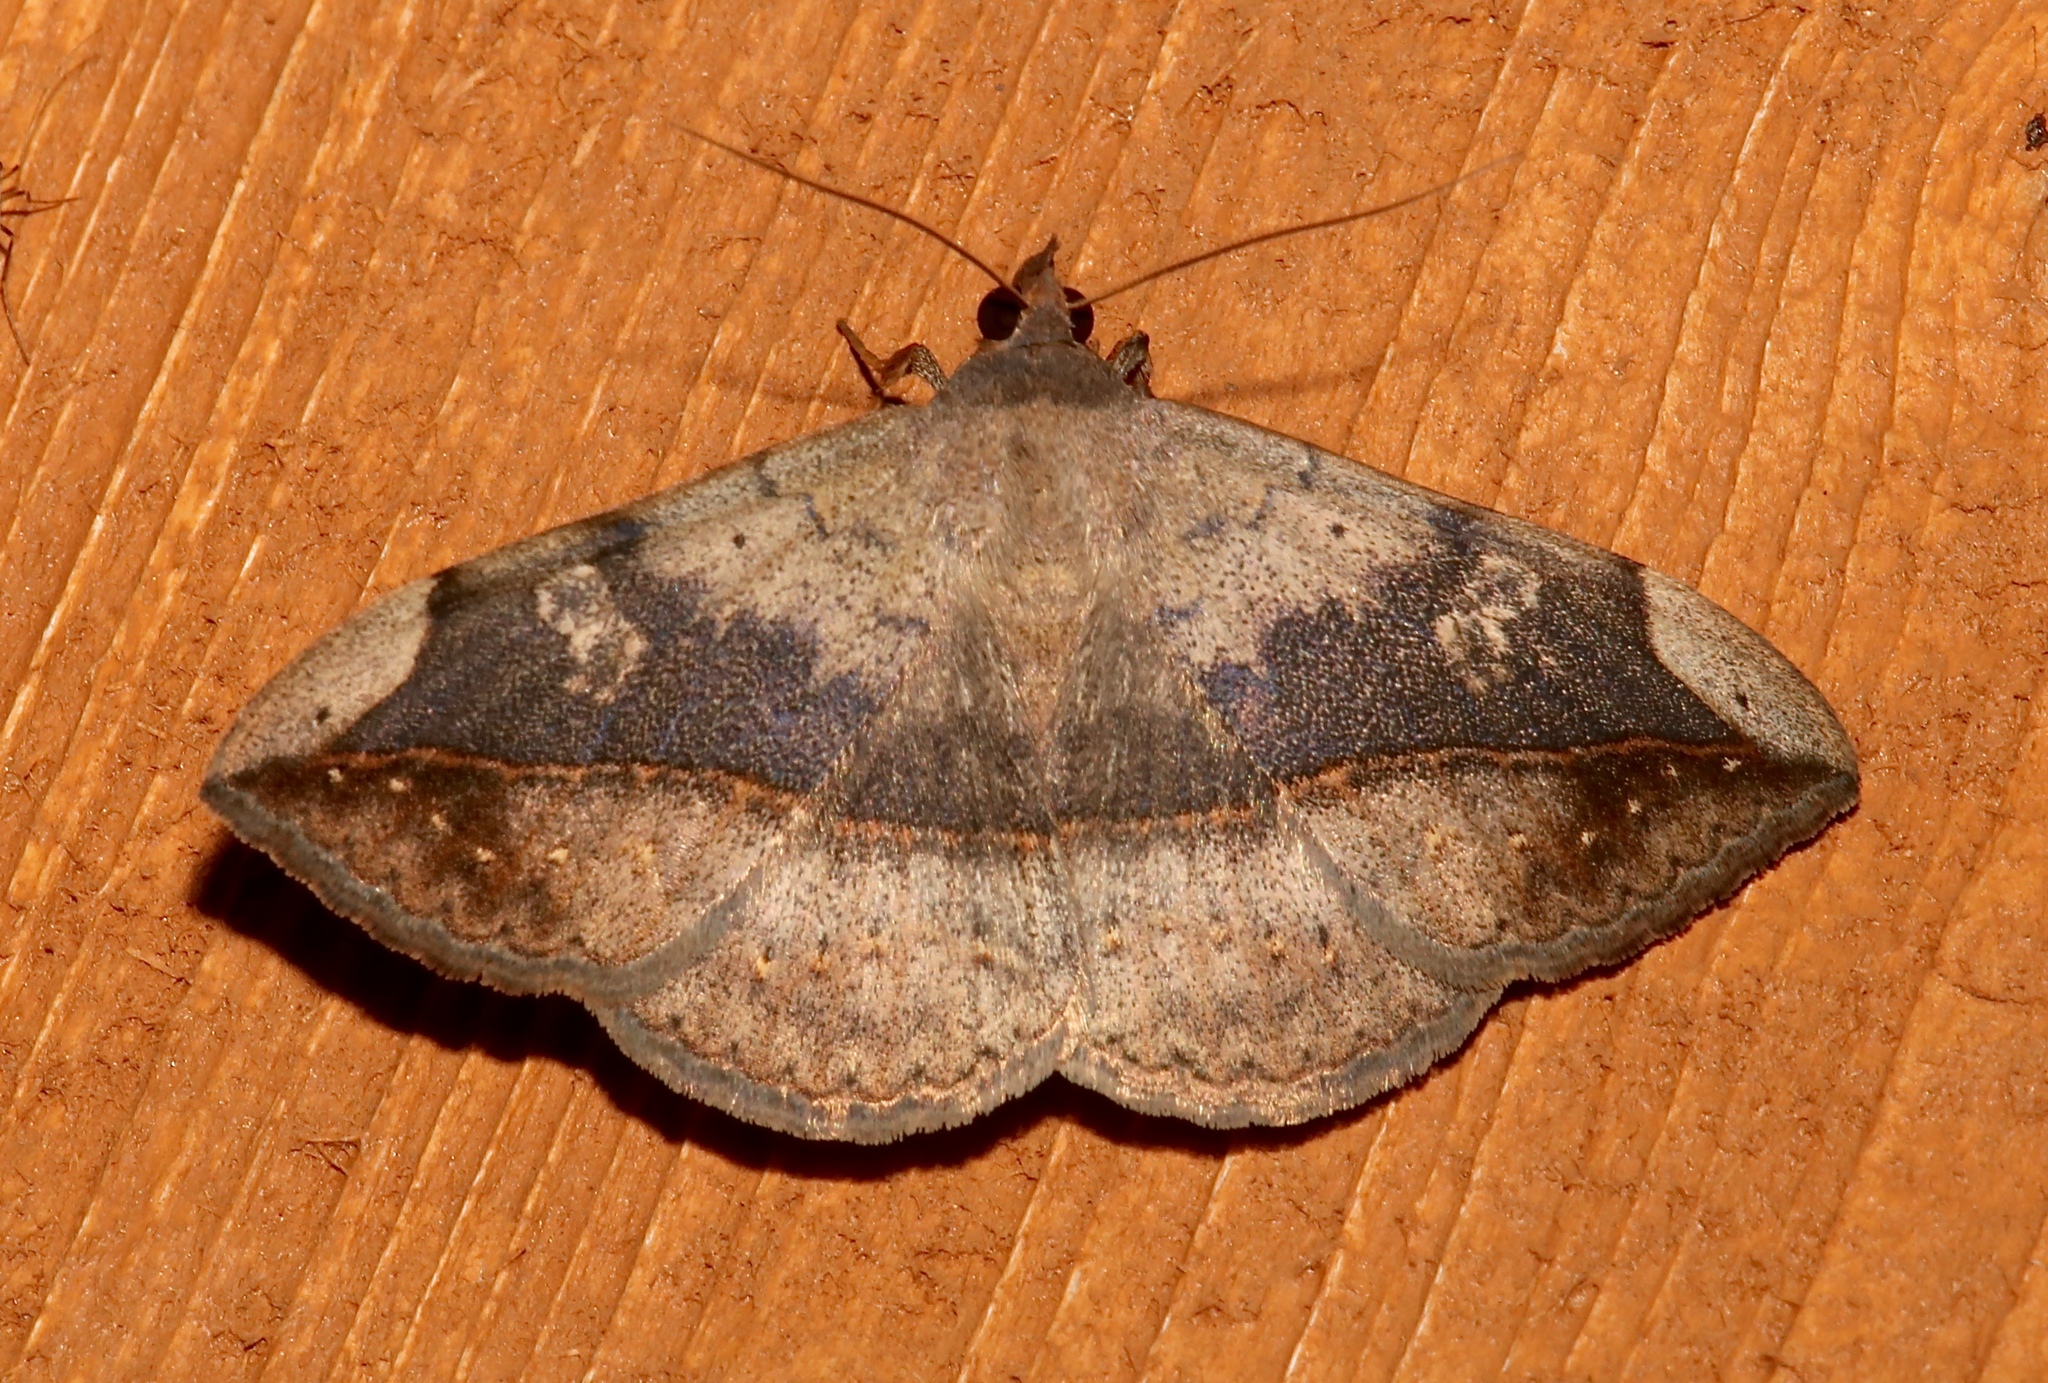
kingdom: Animalia
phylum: Arthropoda
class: Insecta
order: Lepidoptera
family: Erebidae
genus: Anticarsia
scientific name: Anticarsia gemmatalis
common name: Cutworm moth
